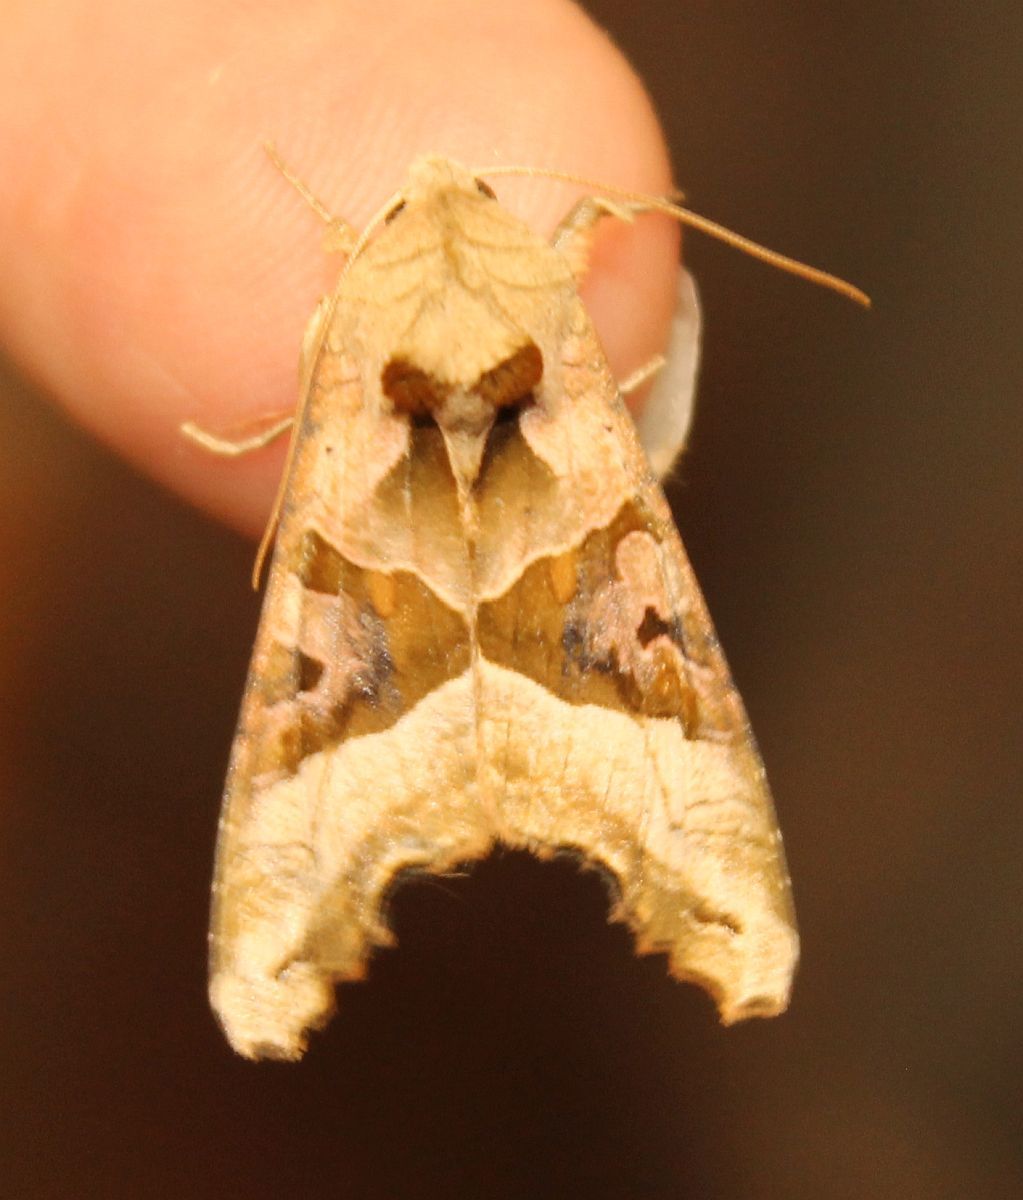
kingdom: Animalia
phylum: Arthropoda
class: Insecta
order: Lepidoptera
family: Noctuidae
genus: Phlogophora
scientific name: Phlogophora meticulosa
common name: Angle shades
